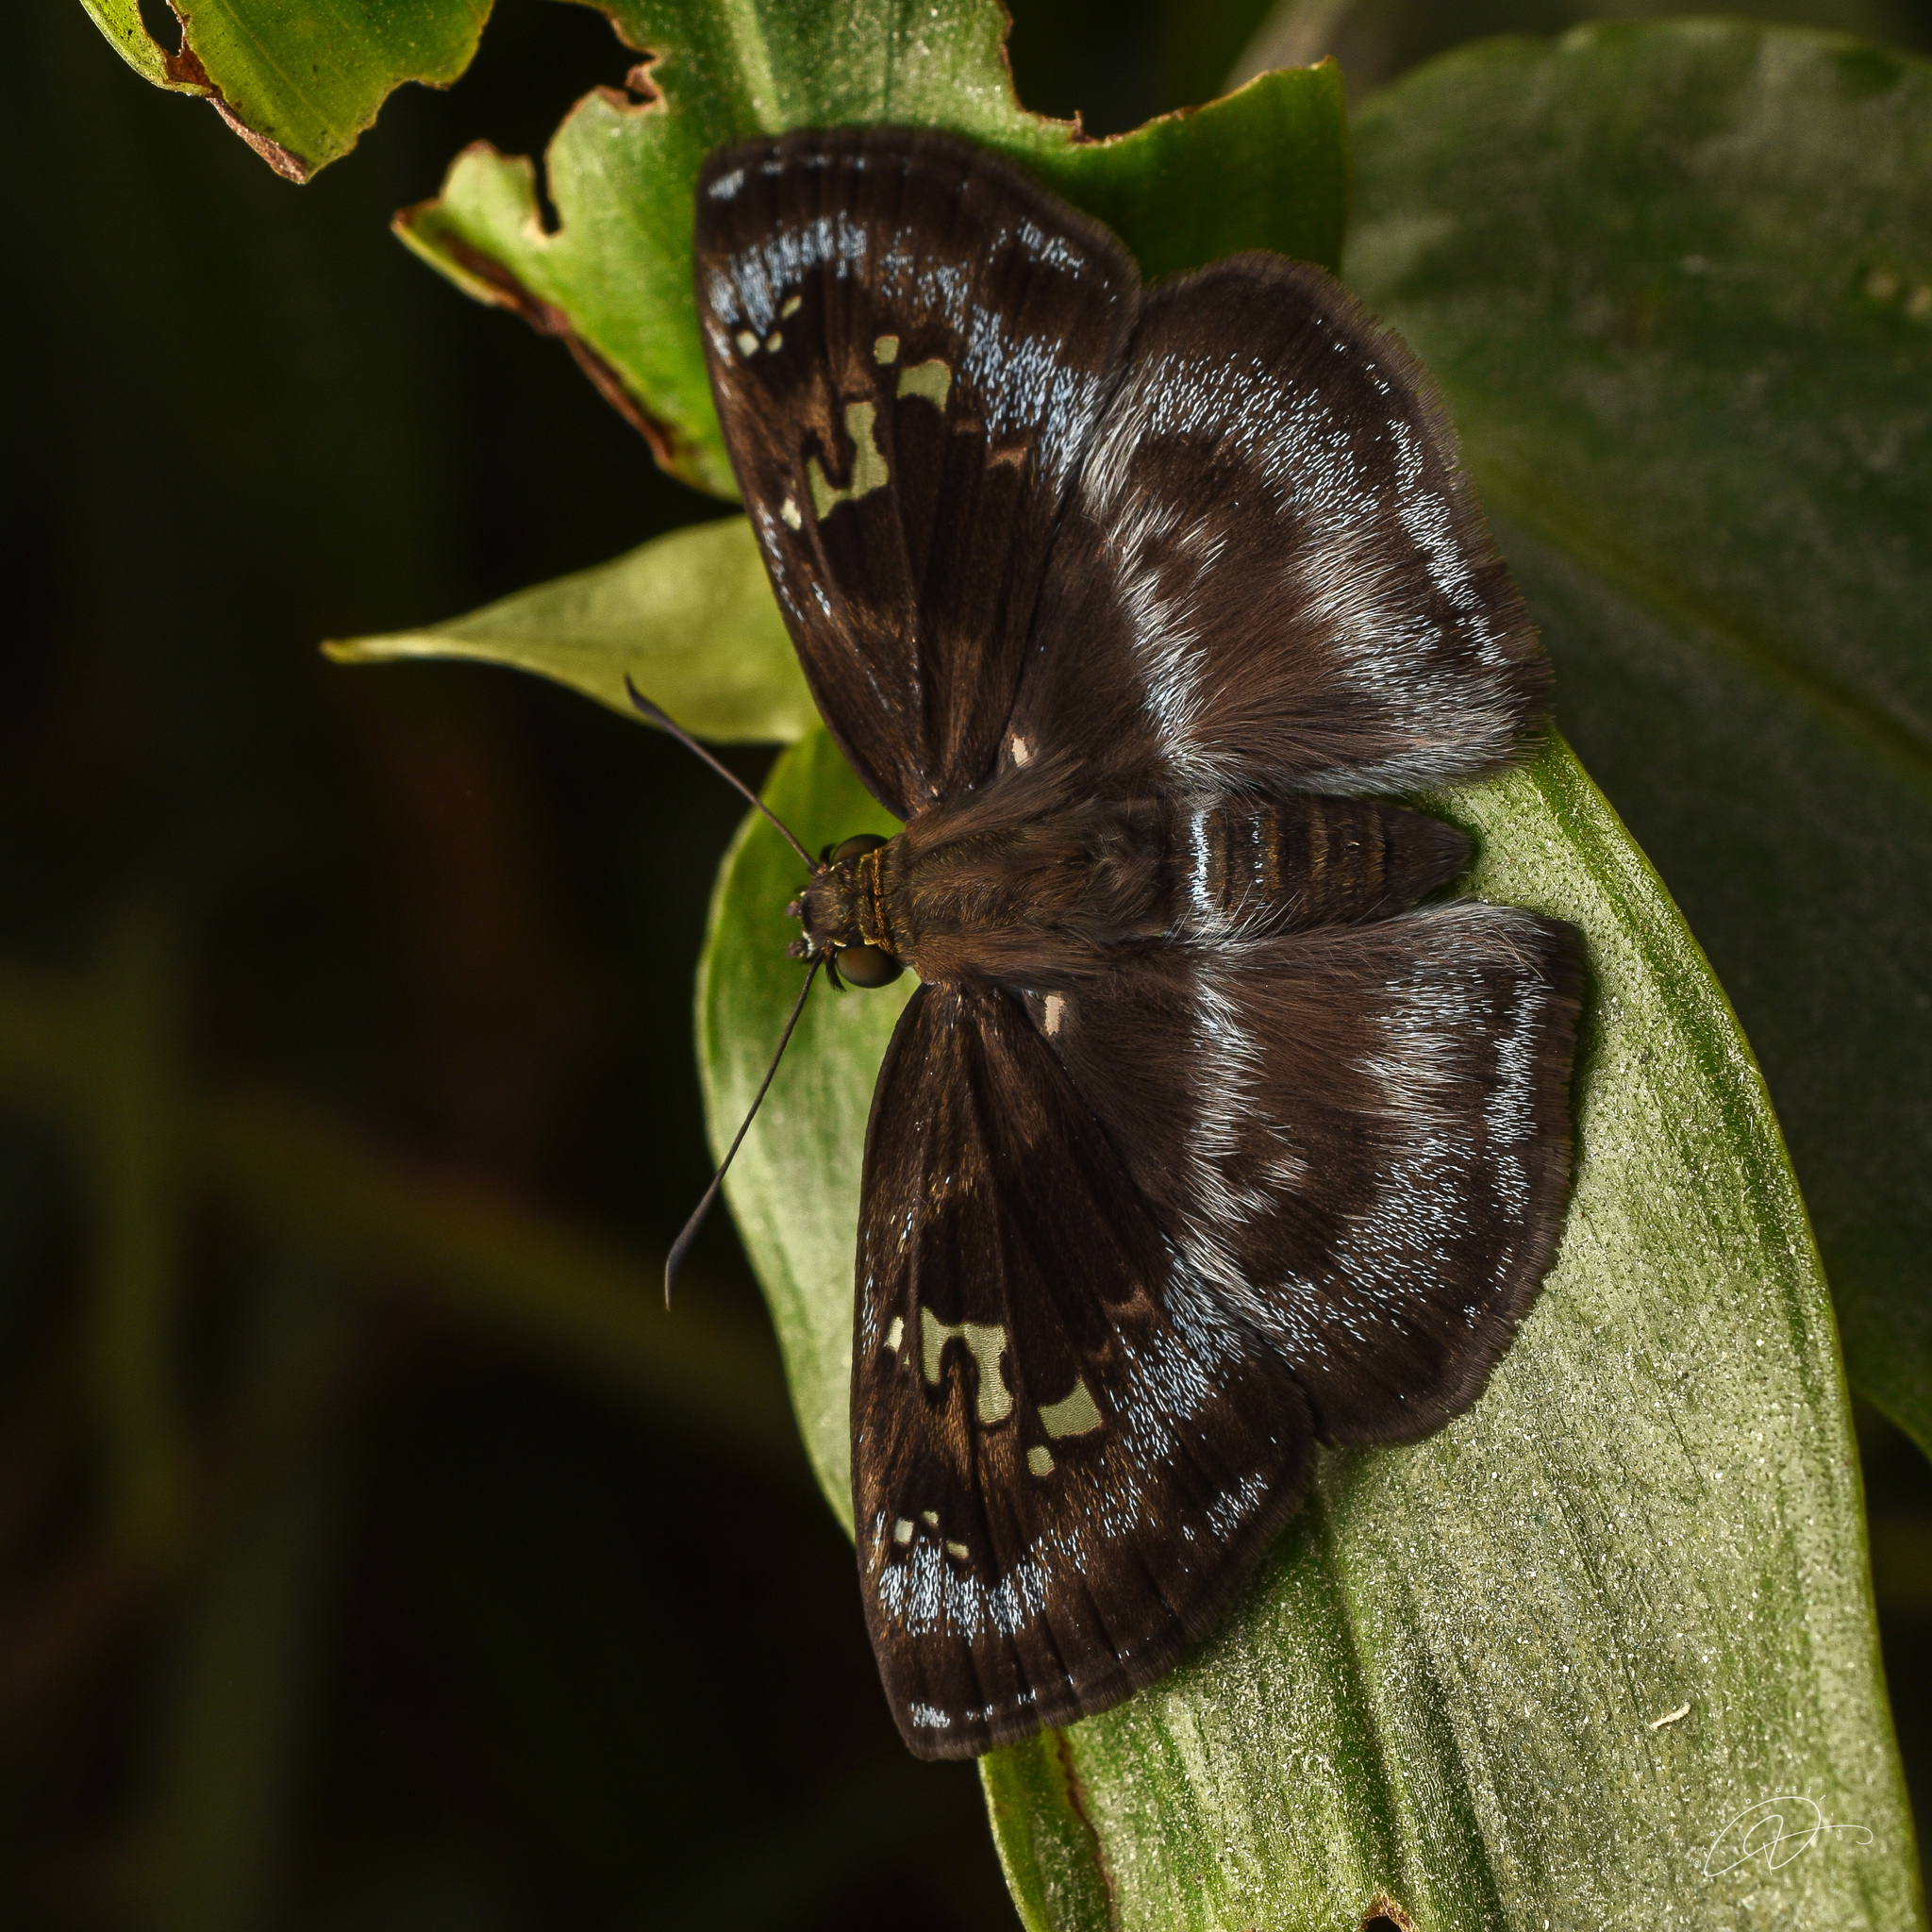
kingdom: Animalia
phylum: Arthropoda
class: Insecta
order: Lepidoptera
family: Hesperiidae
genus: Quadrus
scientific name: Quadrus cerialis
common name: Common blue-skipper
